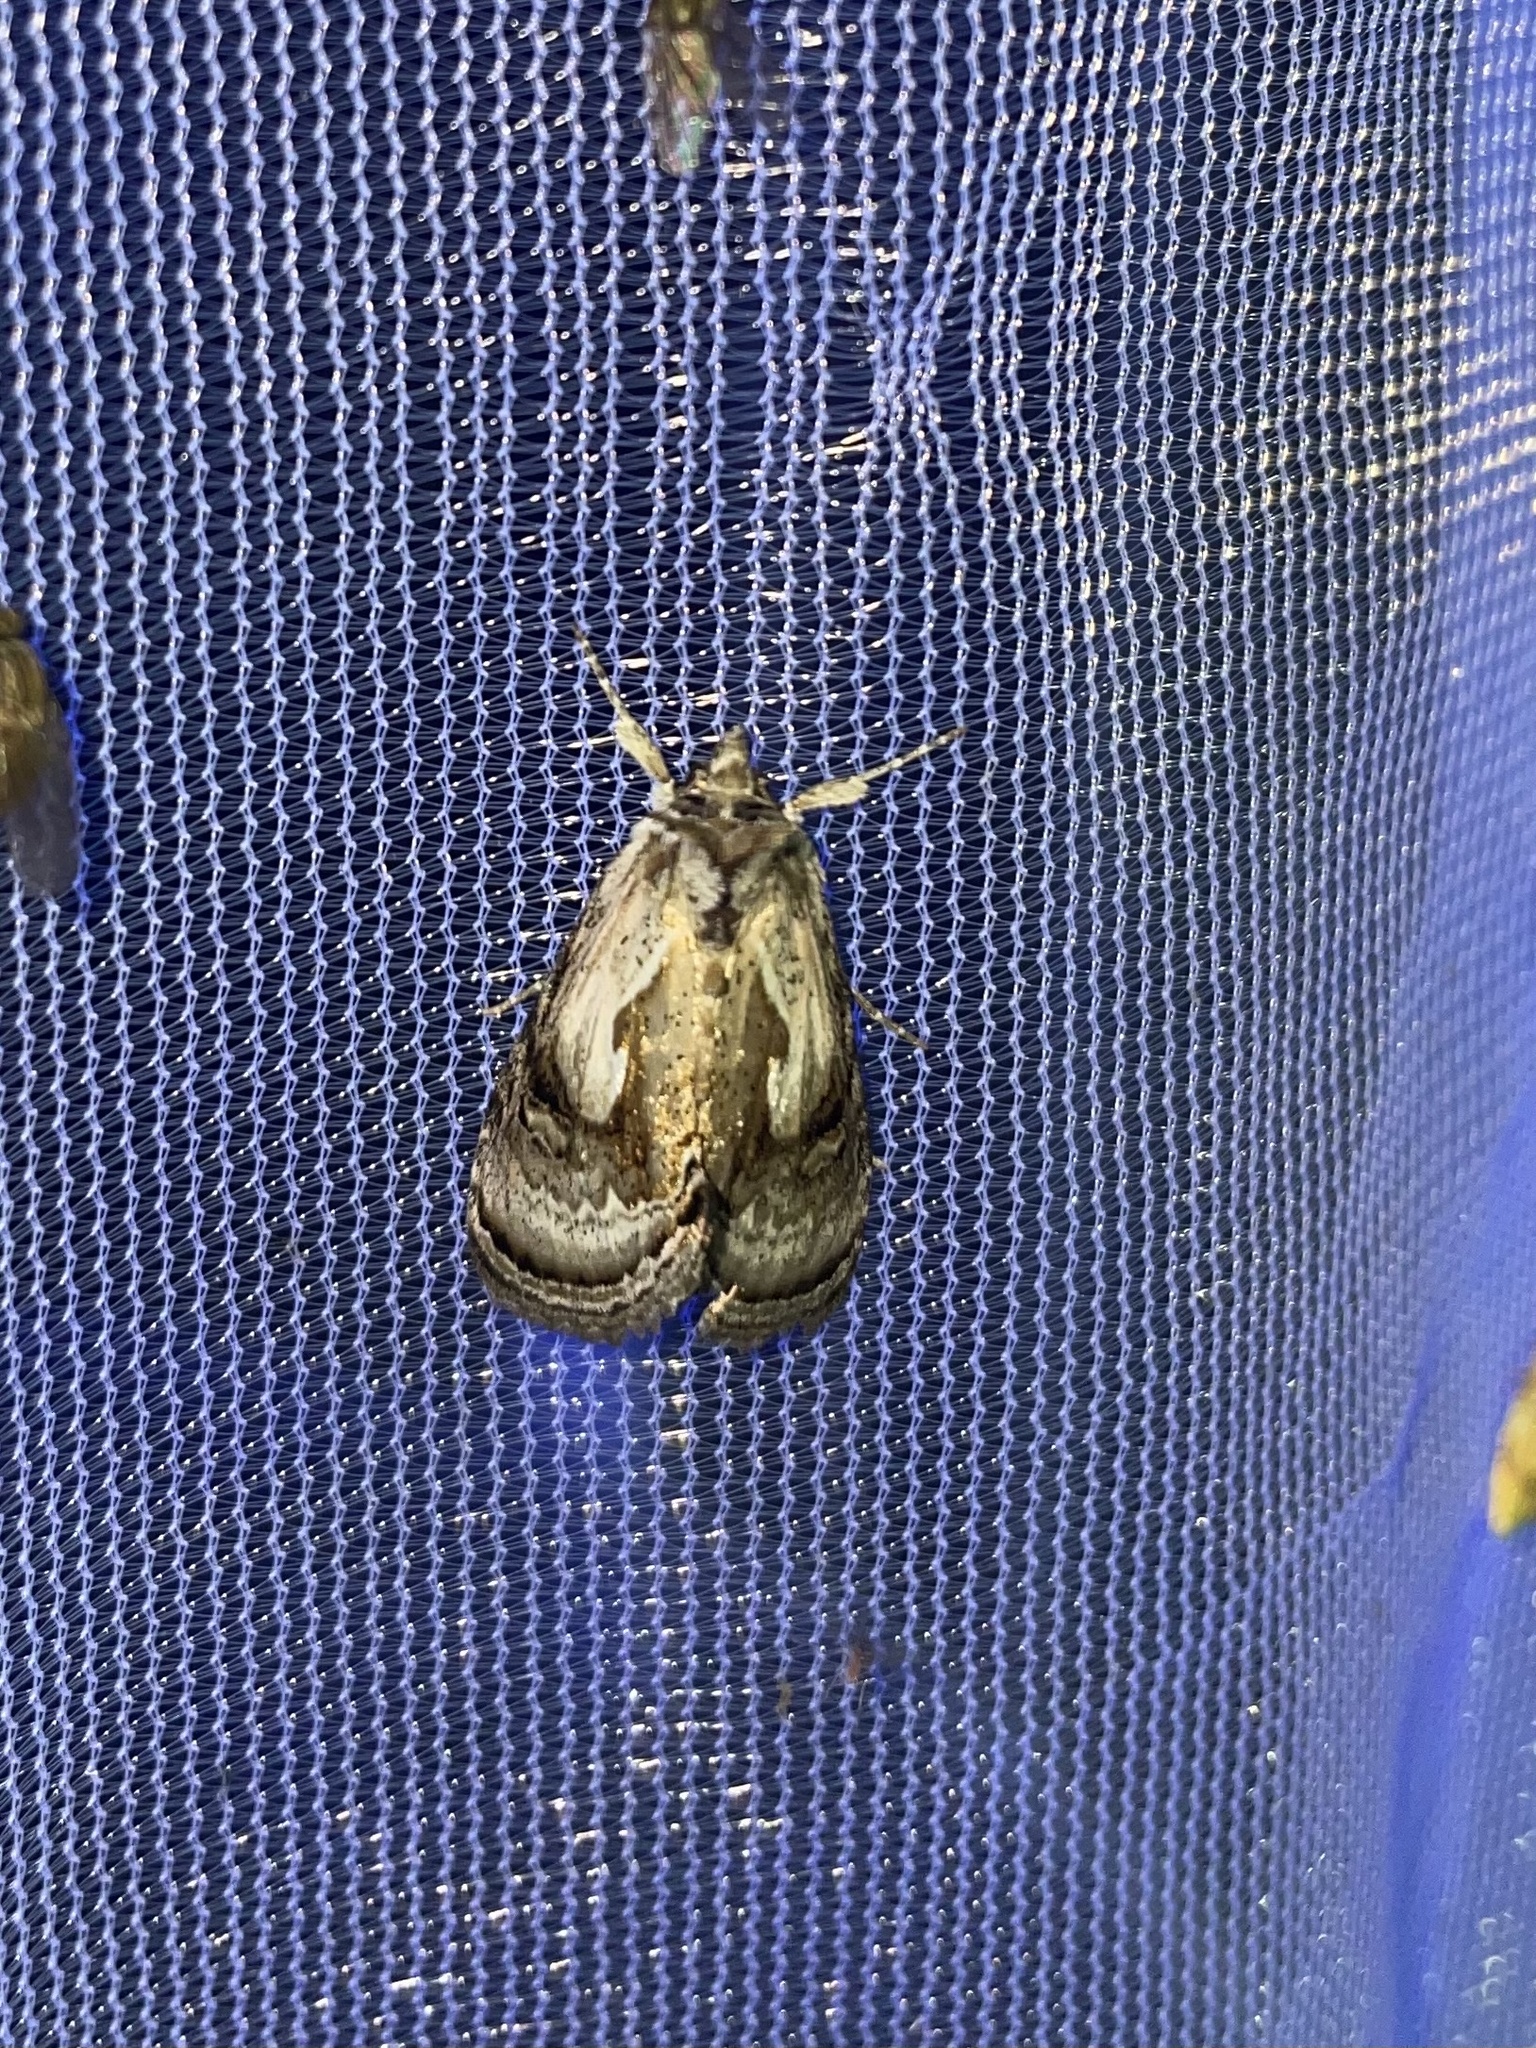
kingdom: Animalia
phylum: Arthropoda
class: Insecta
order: Lepidoptera
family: Noctuidae
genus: Chrysanympha
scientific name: Chrysanympha formosa
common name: Formosa looper moth
